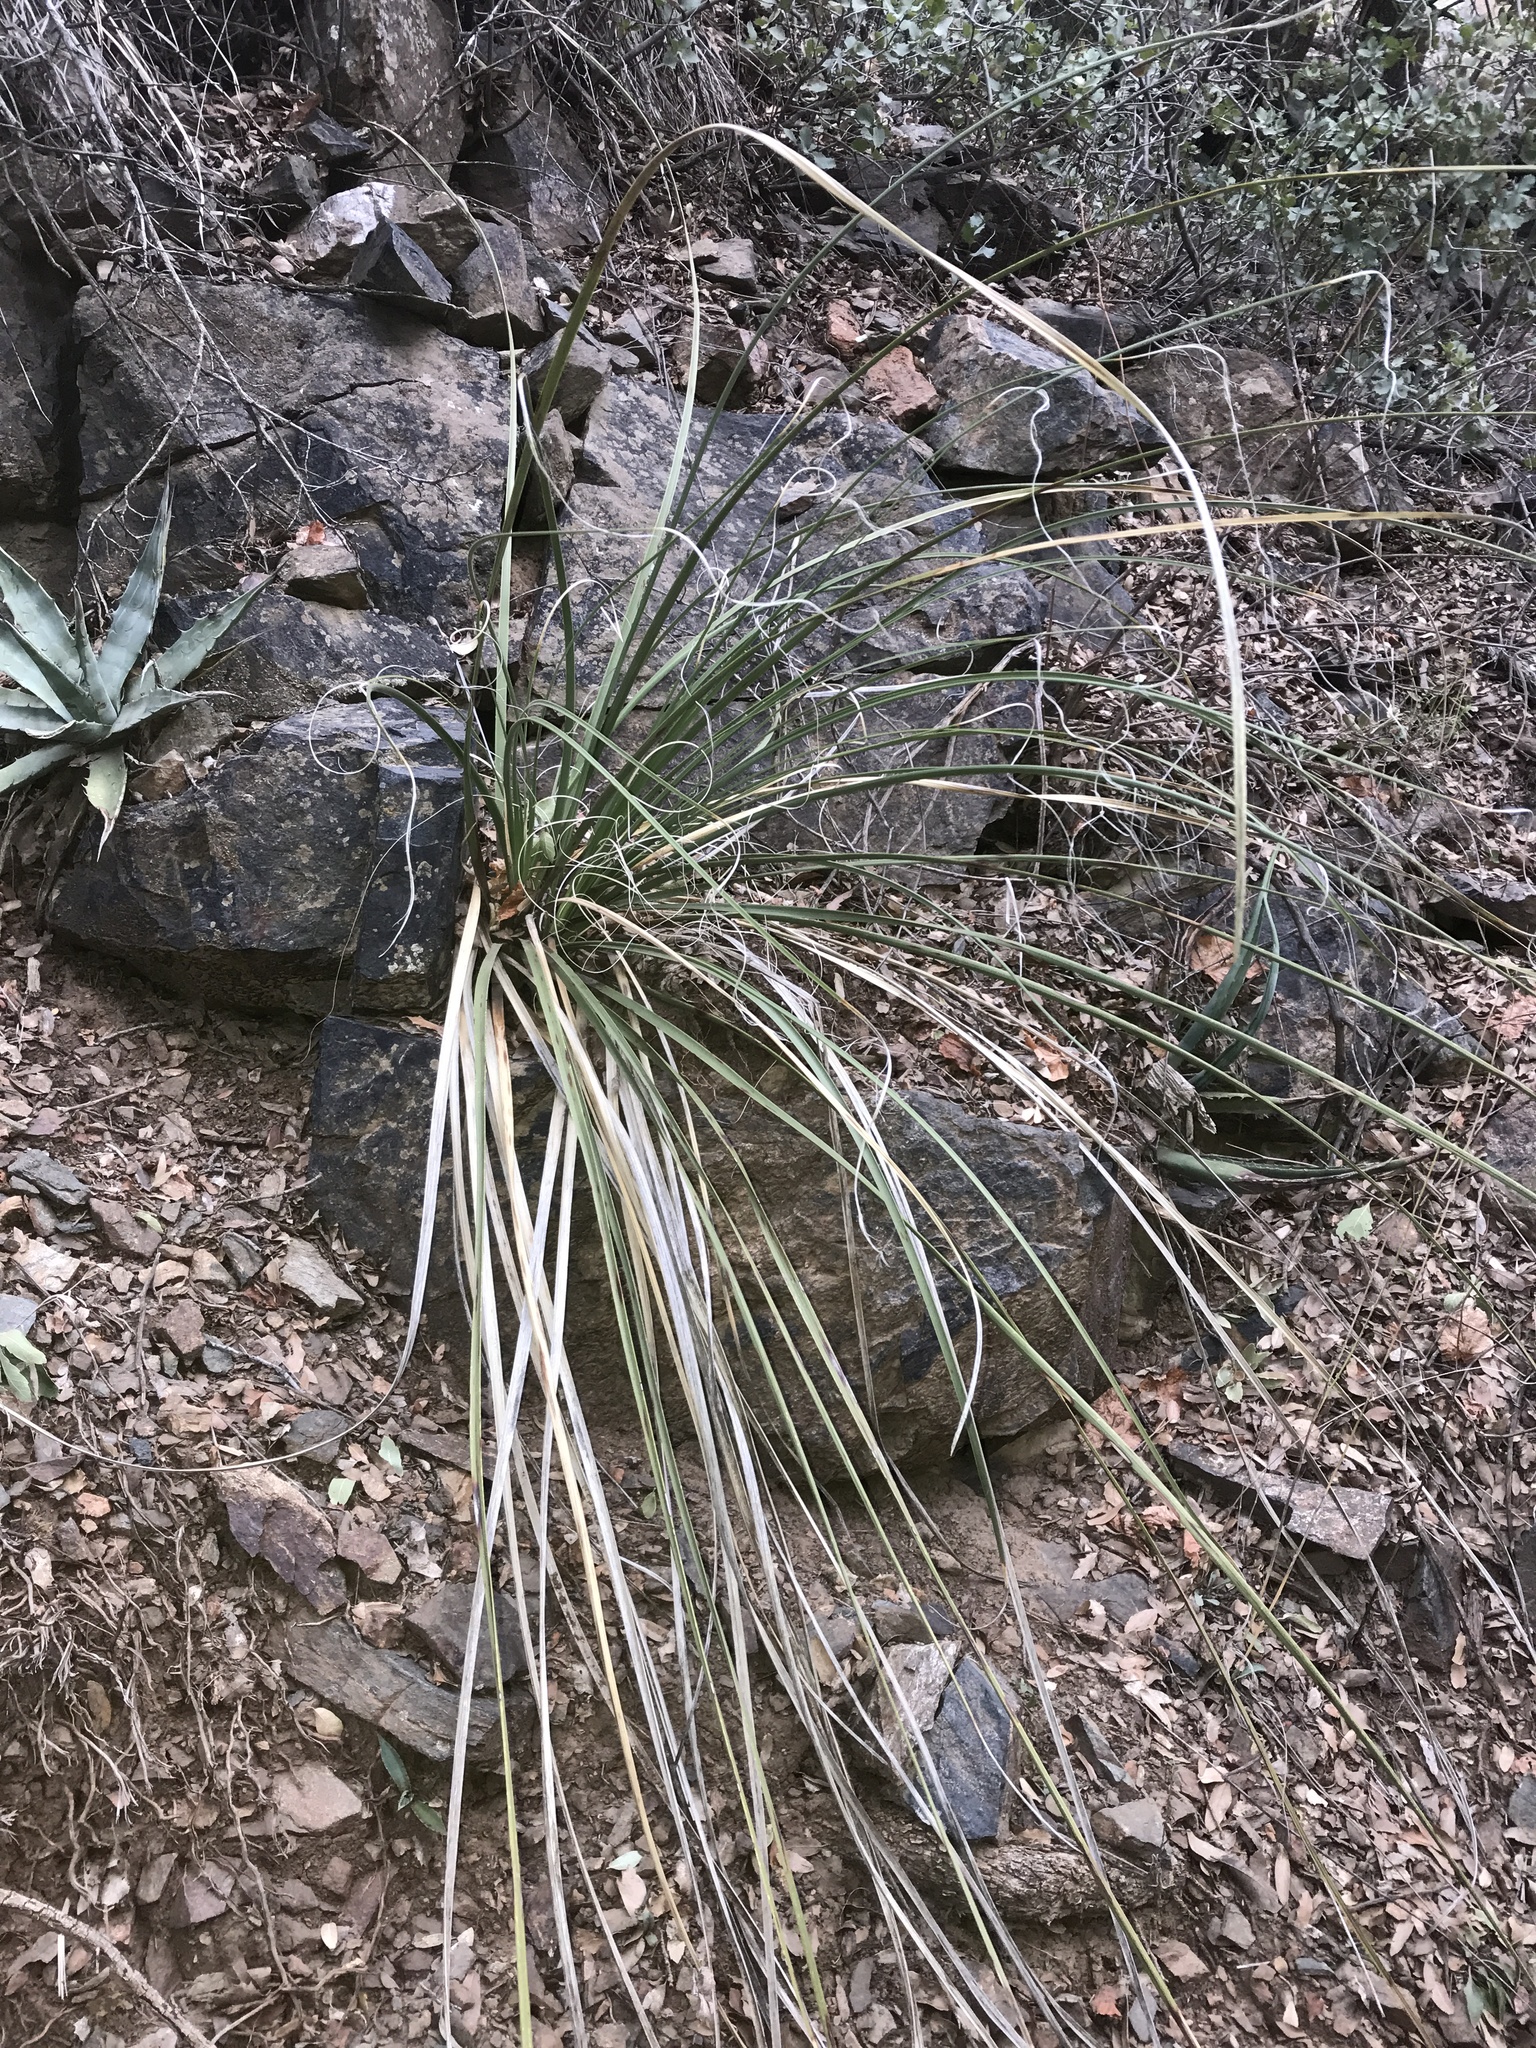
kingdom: Plantae
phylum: Tracheophyta
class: Liliopsida
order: Asparagales
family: Asparagaceae
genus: Nolina
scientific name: Nolina microcarpa
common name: Bear-grass
